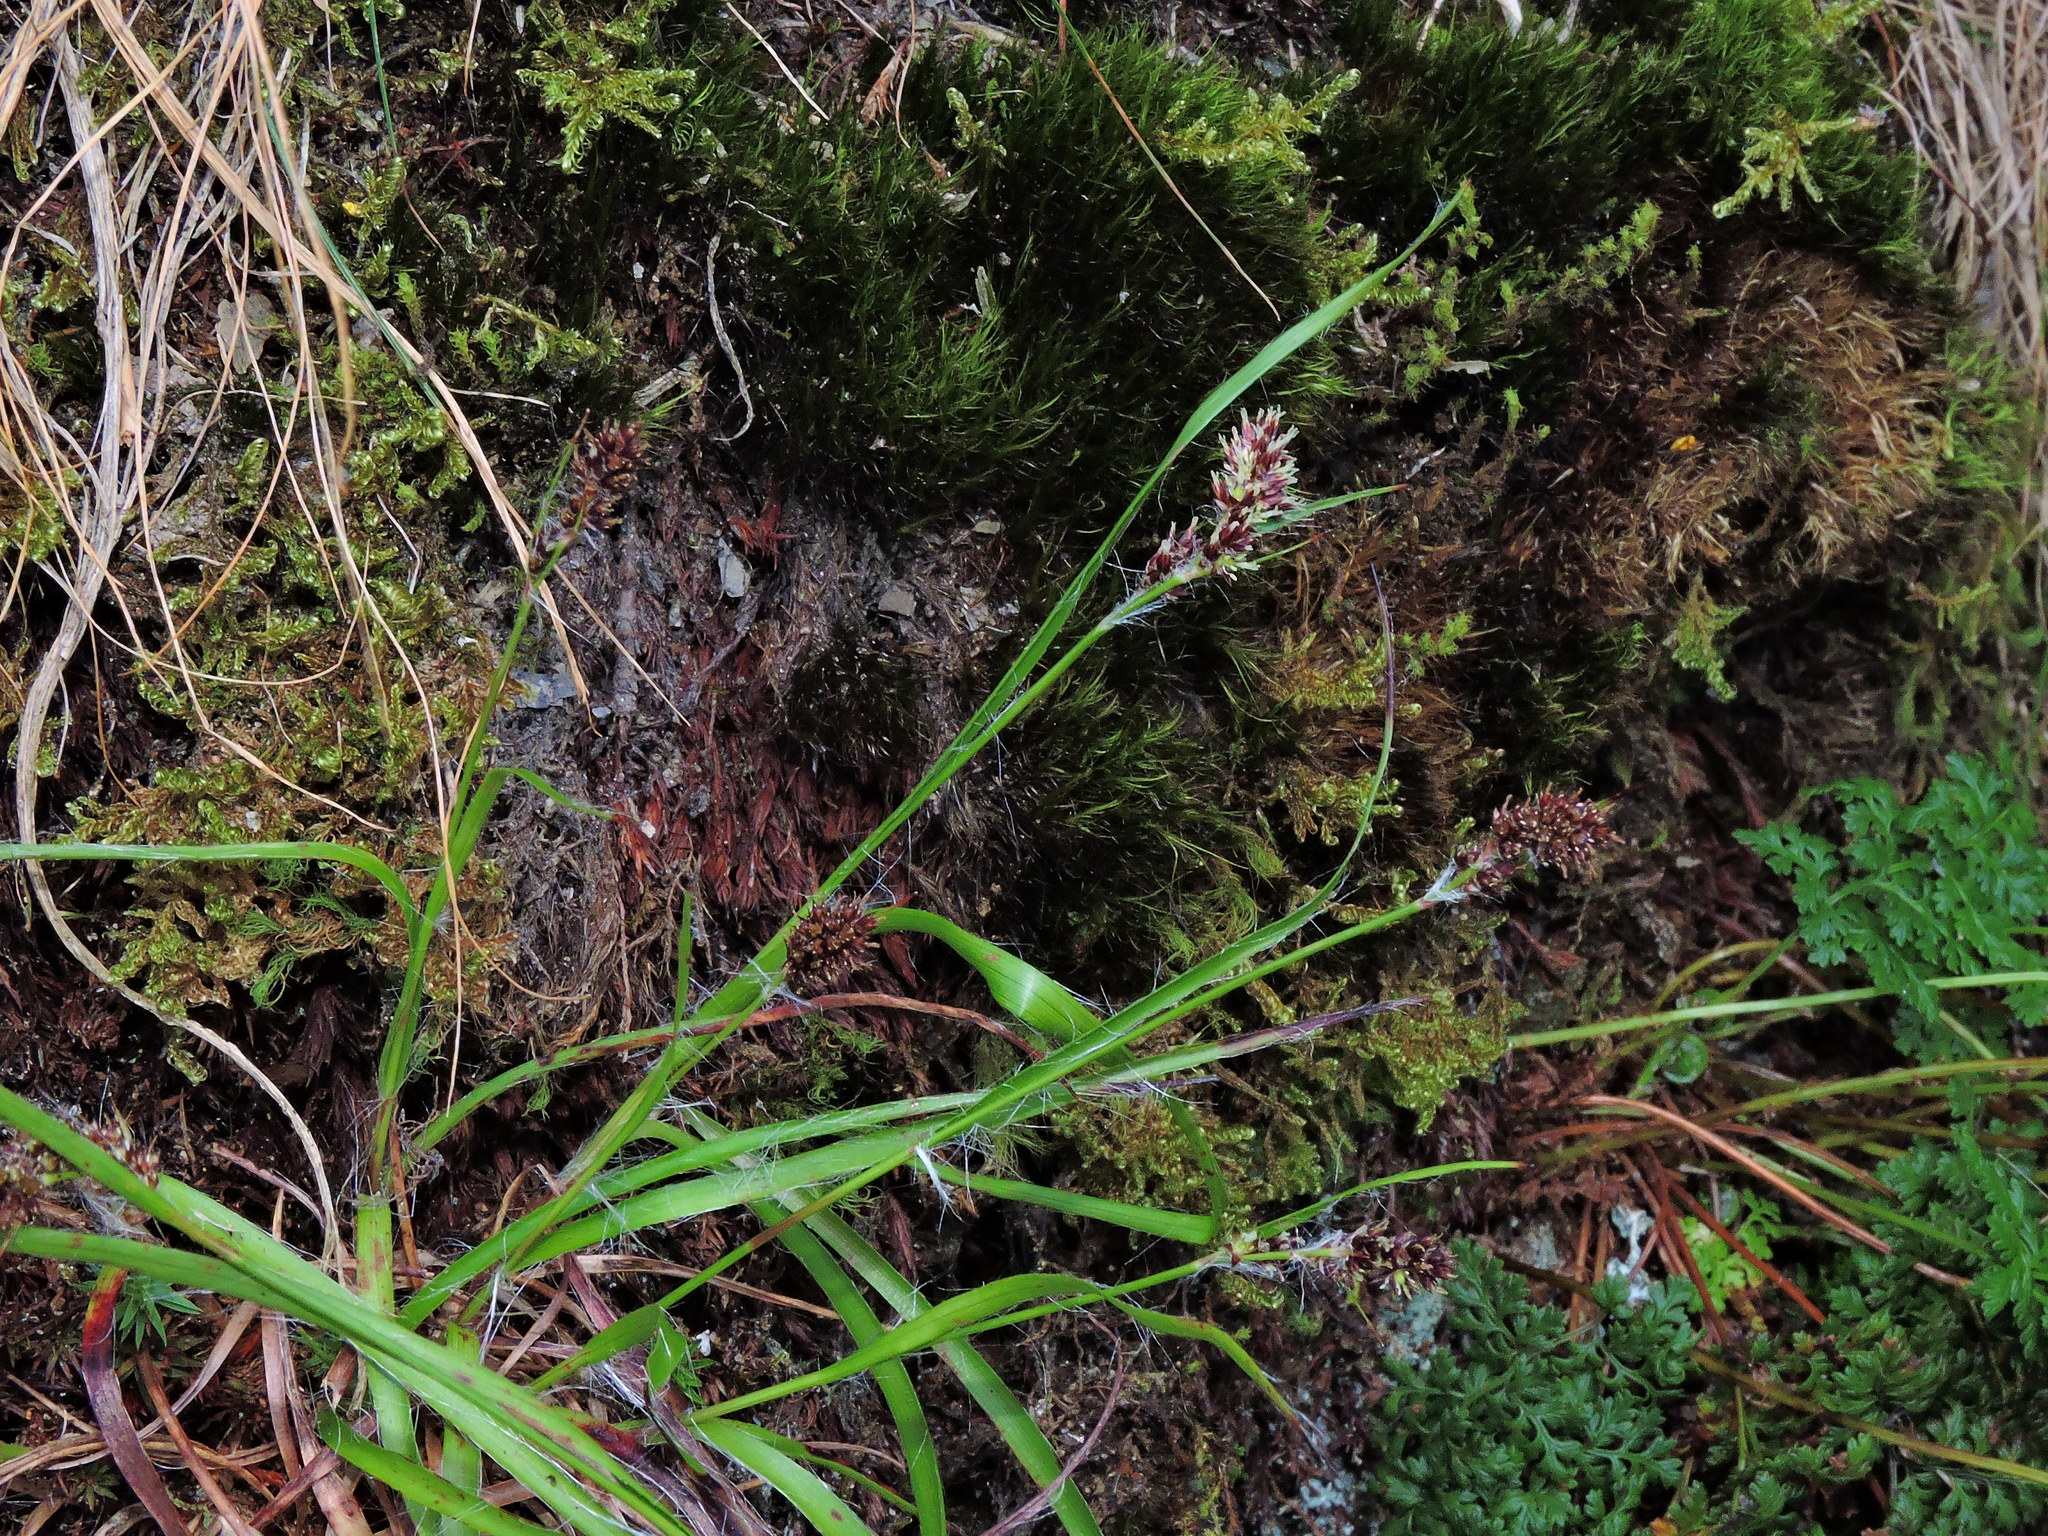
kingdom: Plantae
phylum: Tracheophyta
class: Liliopsida
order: Poales
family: Juncaceae
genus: Luzula
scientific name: Luzula taiwaniana
